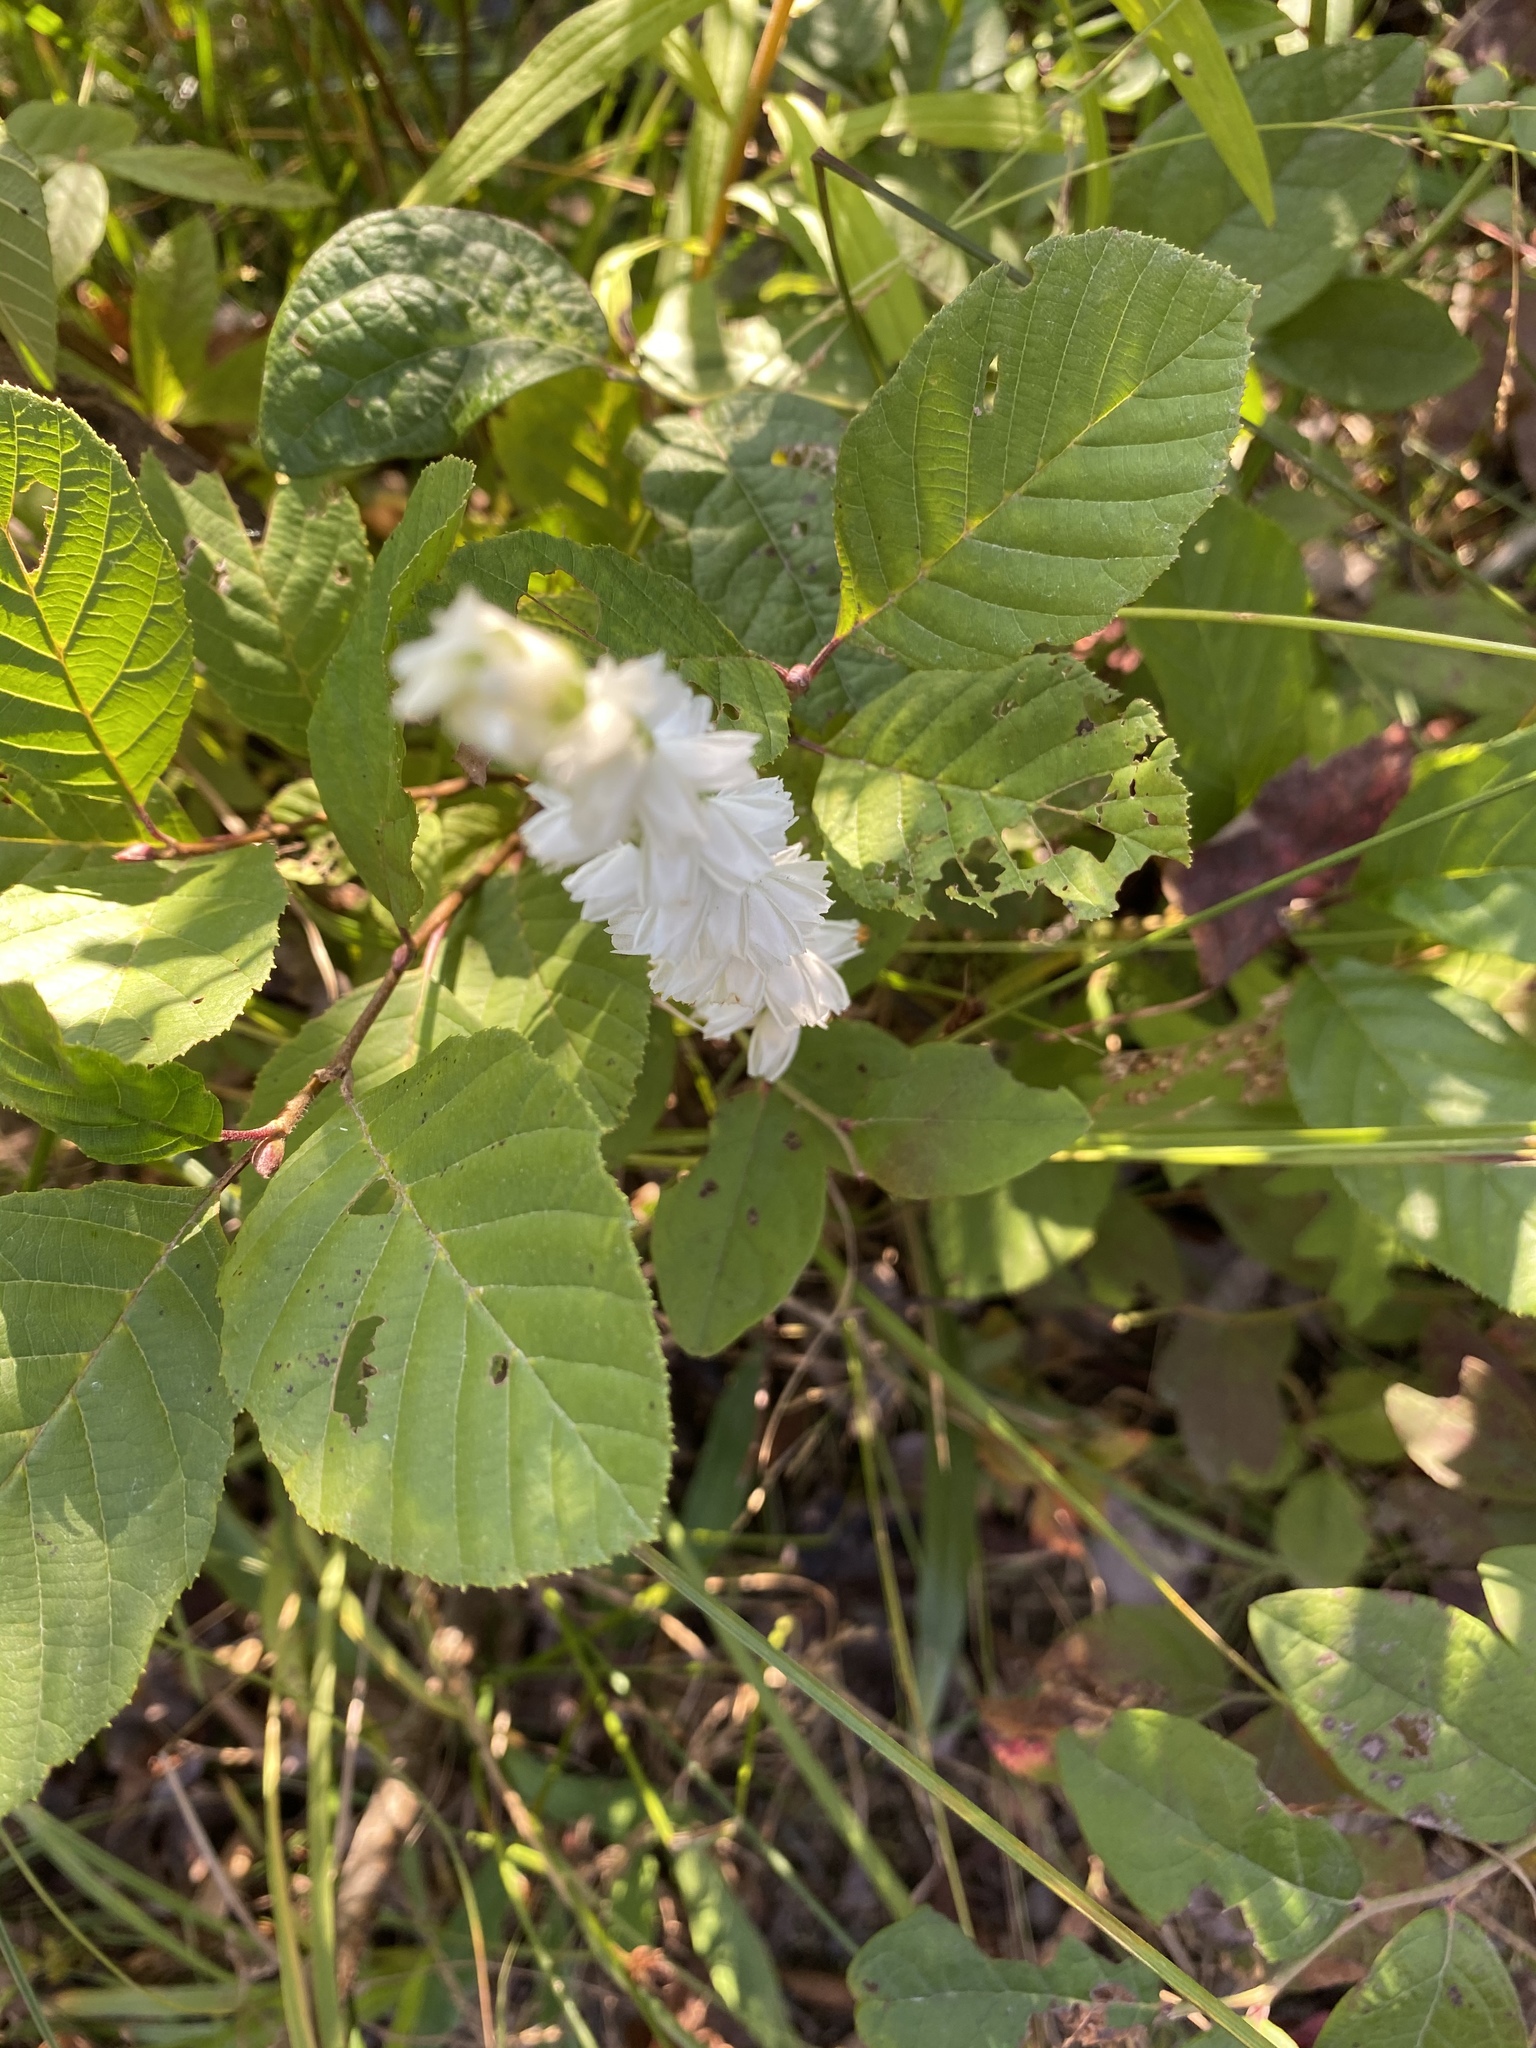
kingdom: Plantae
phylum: Tracheophyta
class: Liliopsida
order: Asparagales
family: Orchidaceae
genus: Spiranthes
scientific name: Spiranthes cernua
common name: Dropping ladies'-tresses
